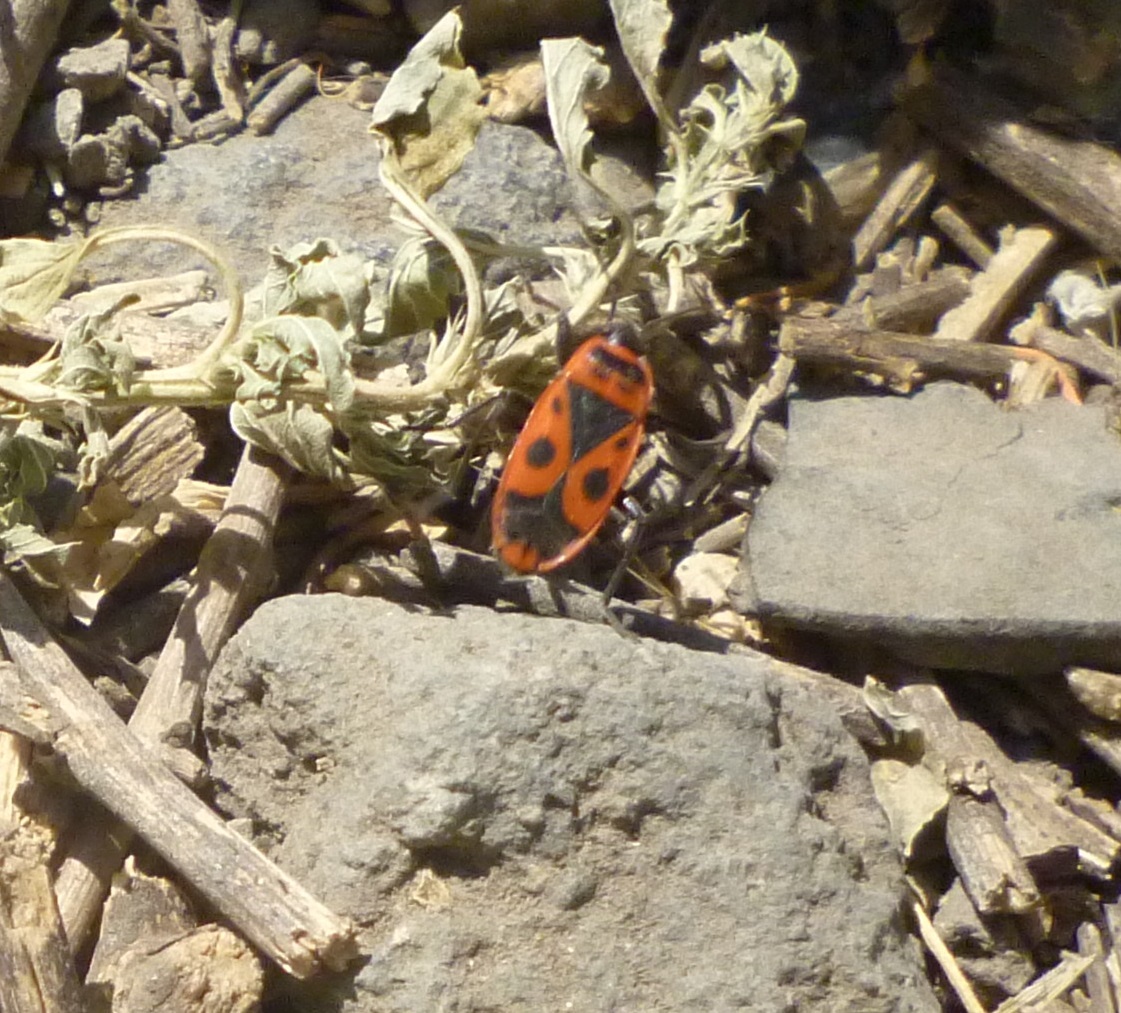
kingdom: Animalia
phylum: Arthropoda
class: Insecta
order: Hemiptera
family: Pyrrhocoridae
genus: Pyrrhocoris
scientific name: Pyrrhocoris apterus
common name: Firebug
